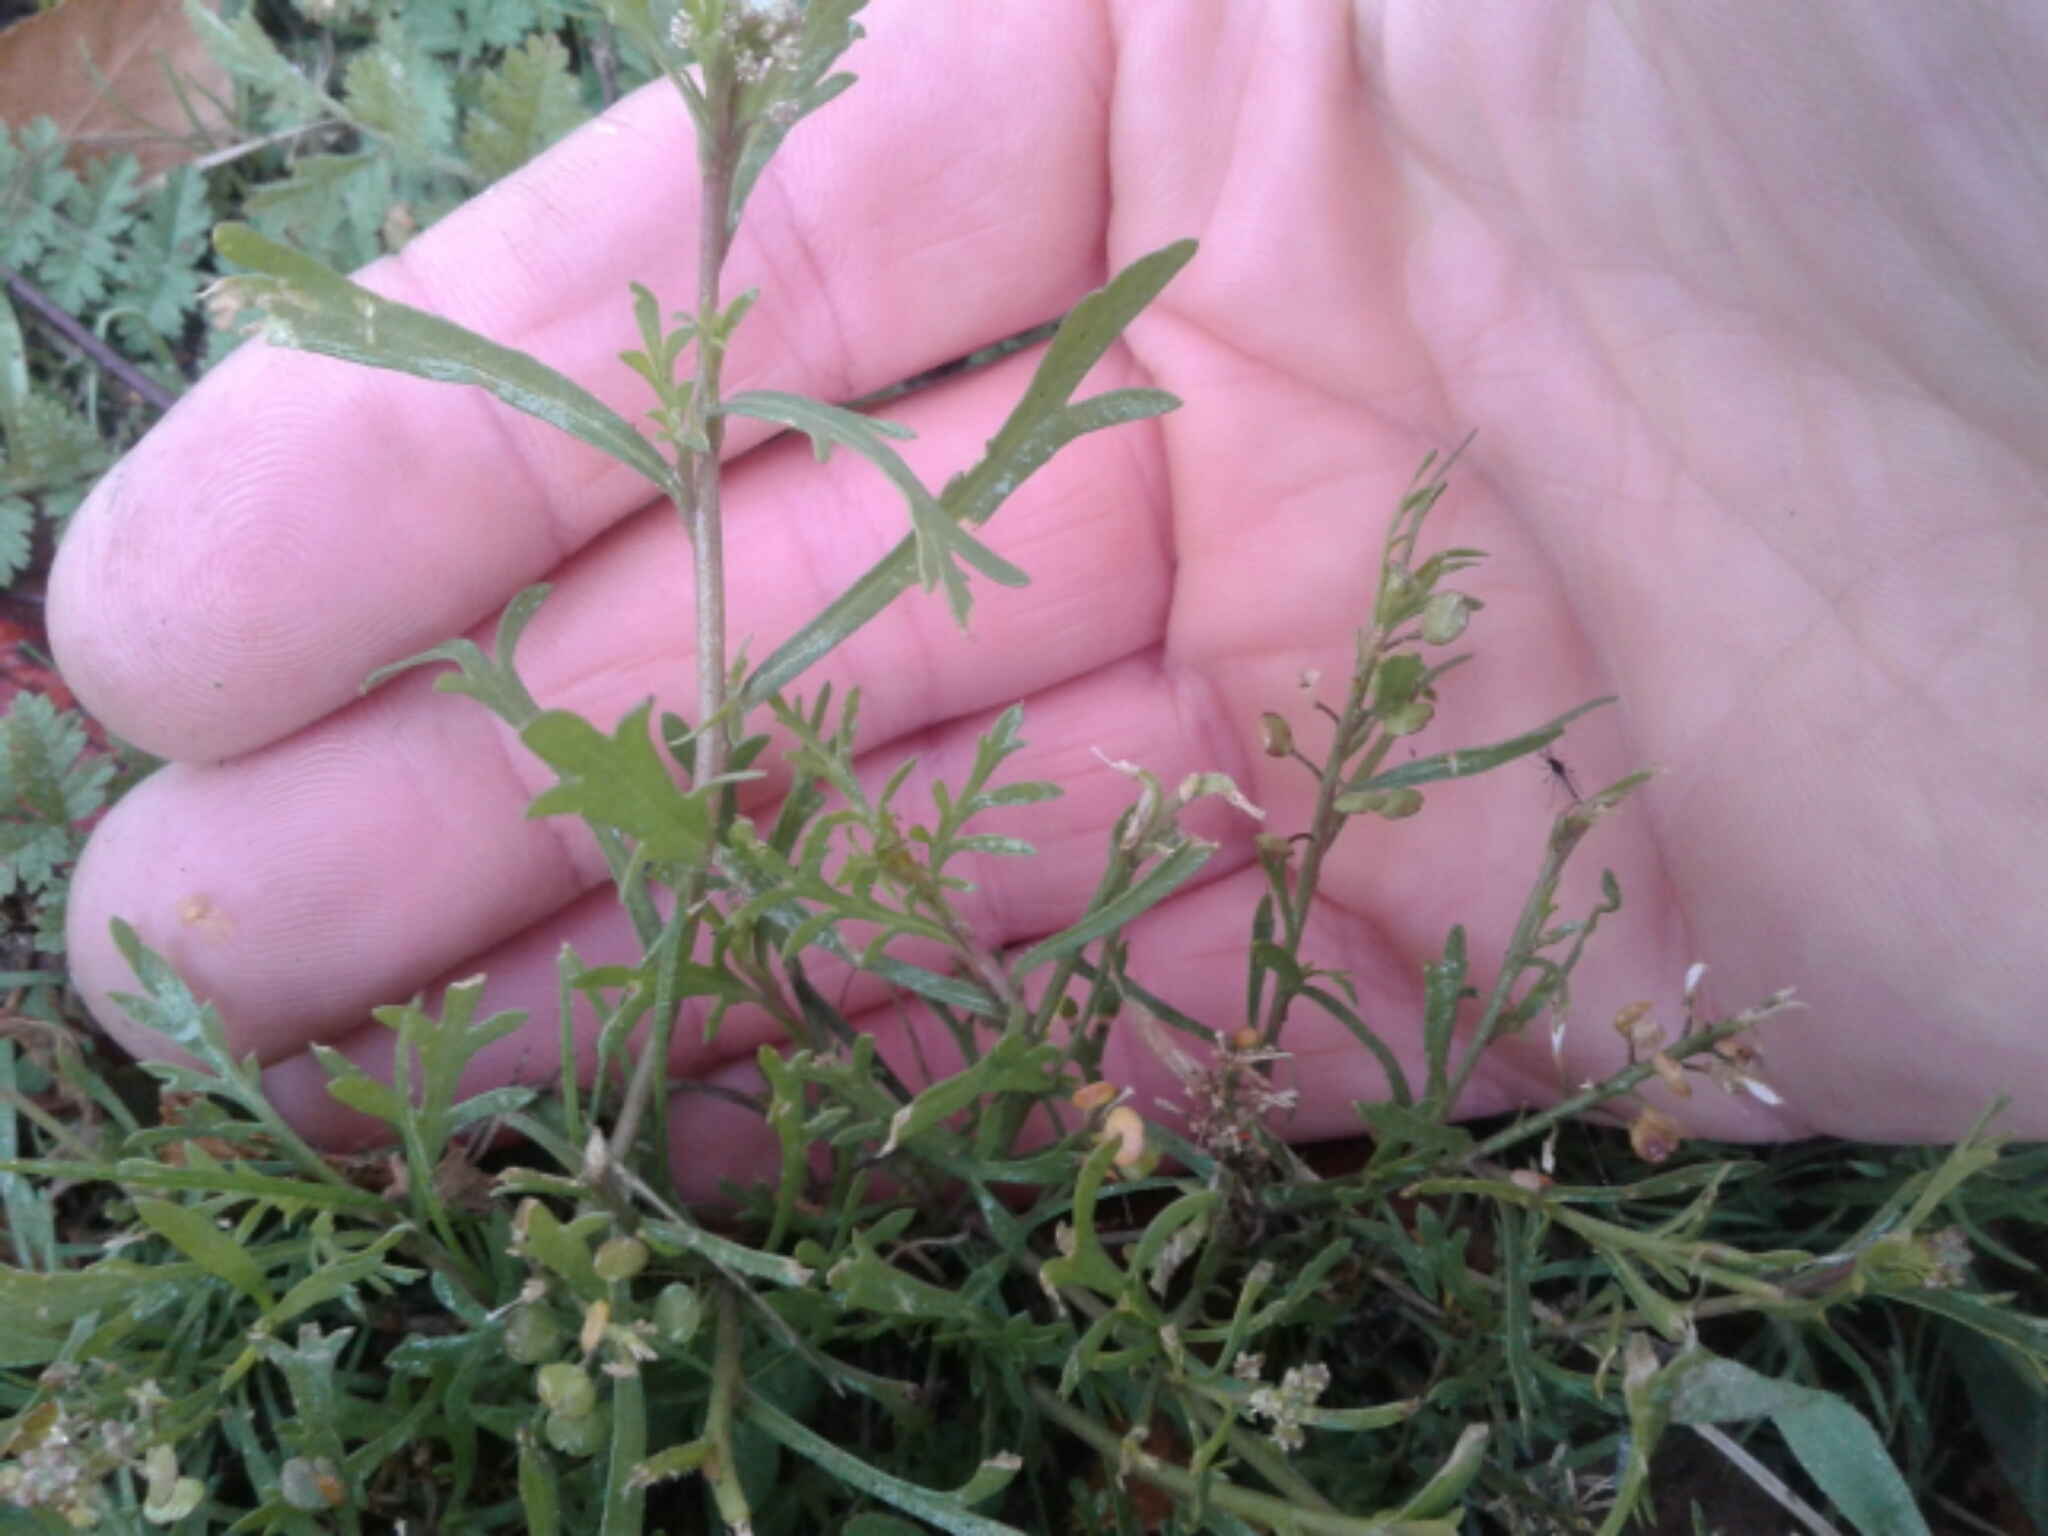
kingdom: Plantae
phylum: Tracheophyta
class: Magnoliopsida
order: Brassicales
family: Brassicaceae
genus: Lepidium
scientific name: Lepidium bonariense
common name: Argentine pepperwort
